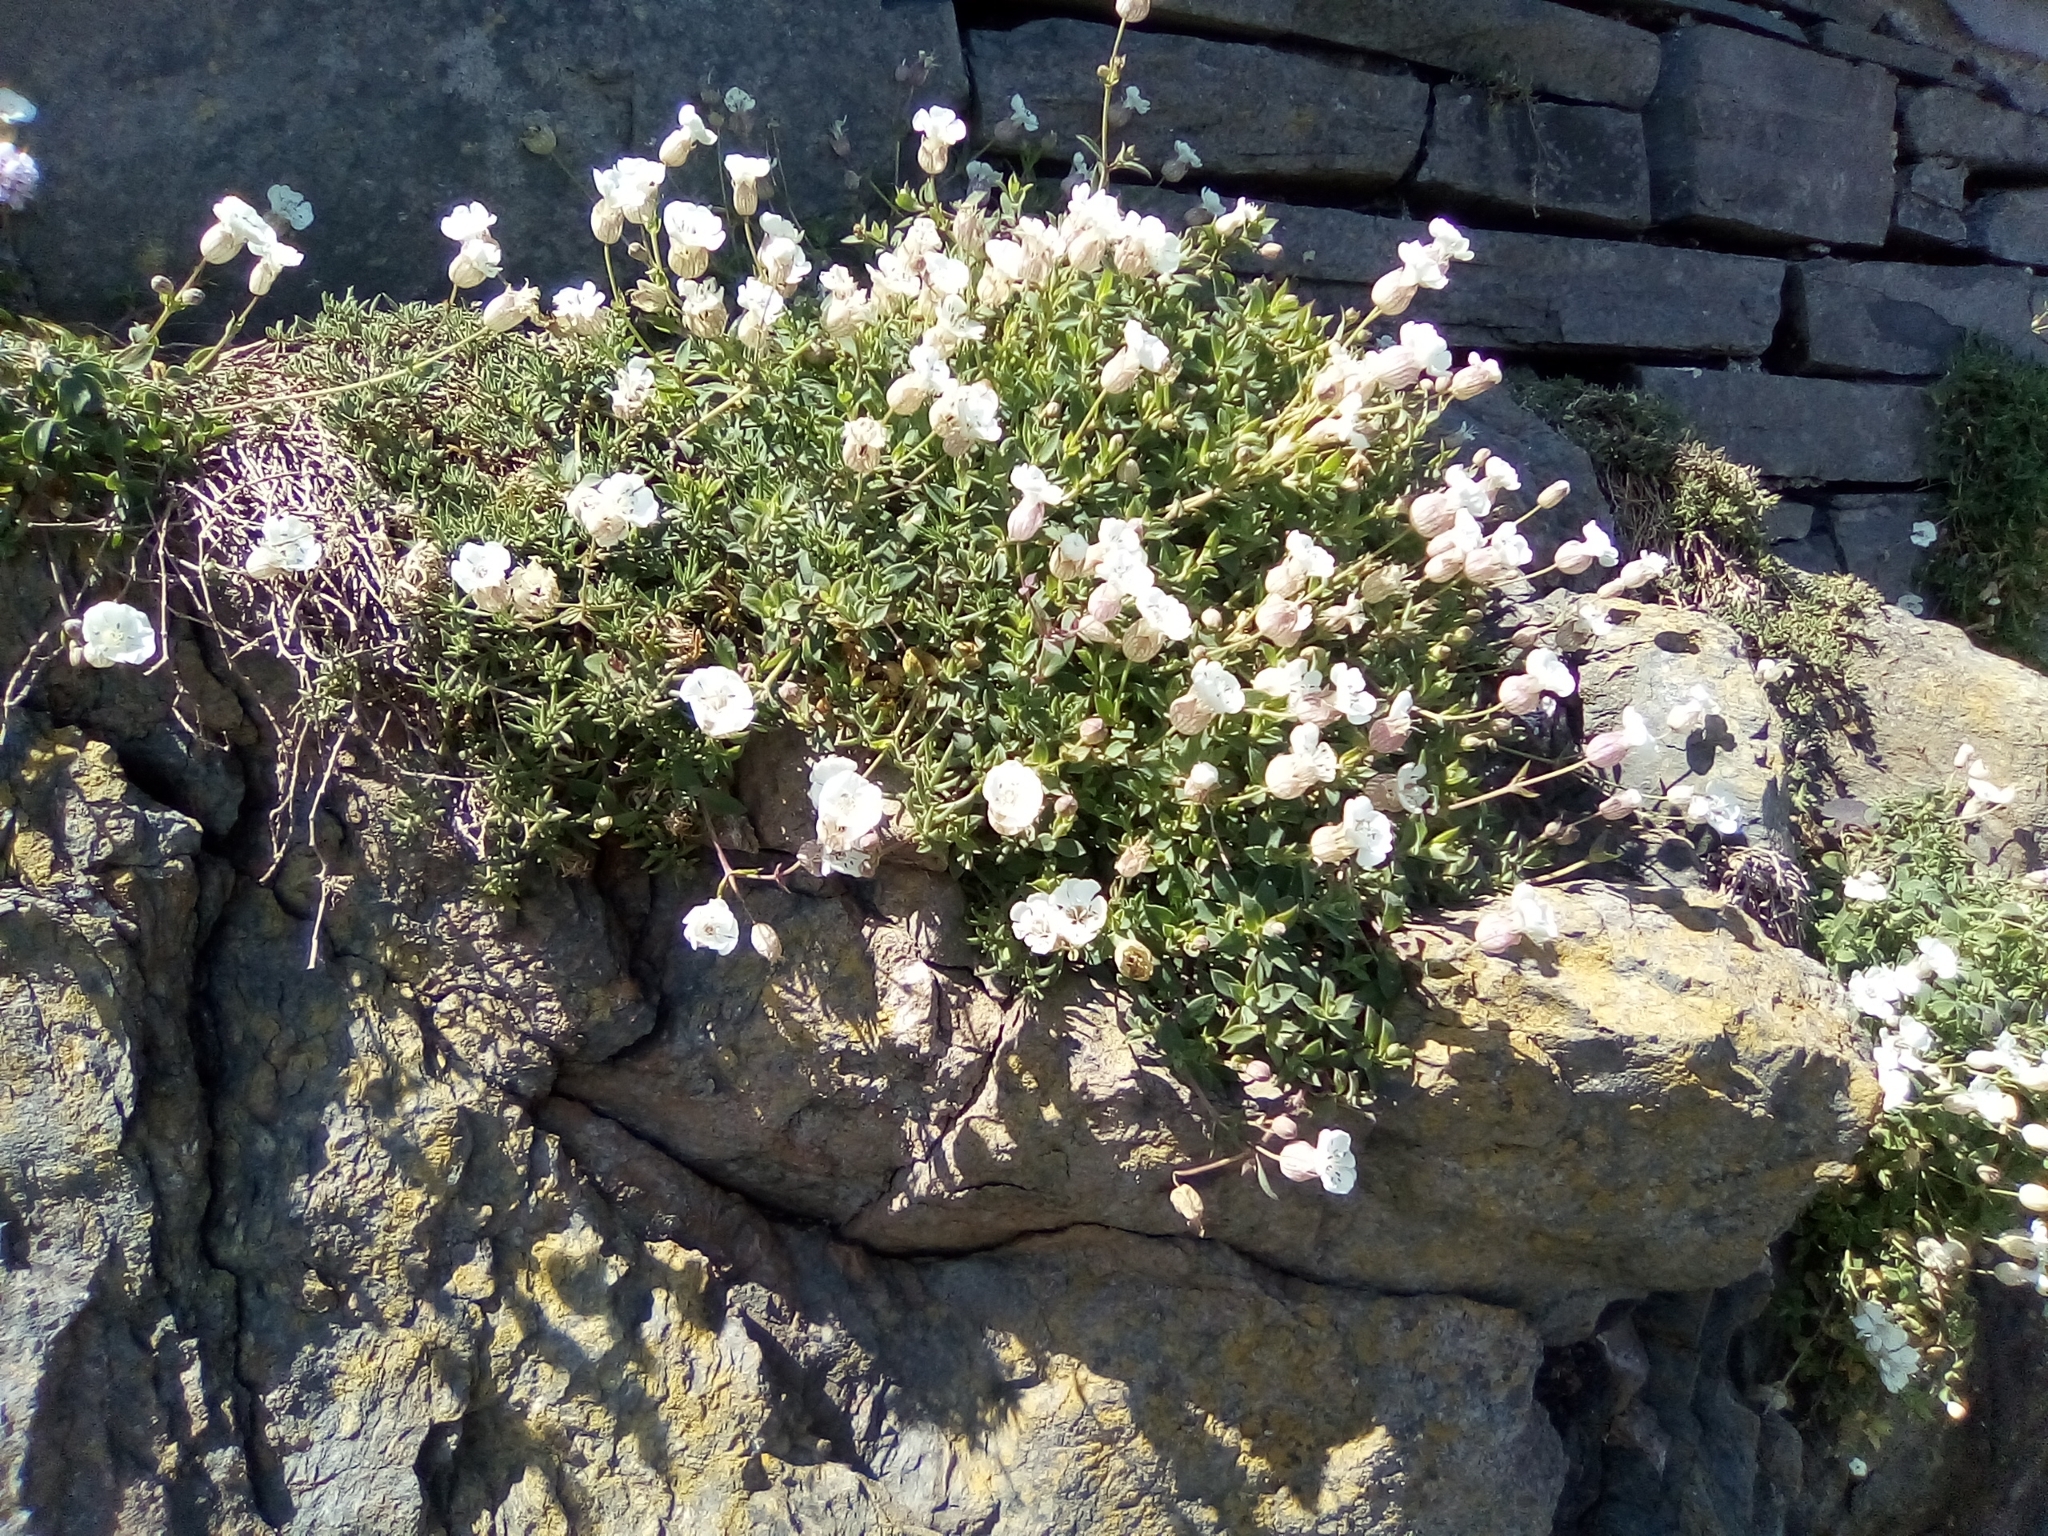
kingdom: Plantae
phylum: Tracheophyta
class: Magnoliopsida
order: Caryophyllales
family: Caryophyllaceae
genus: Silene
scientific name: Silene uniflora
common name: Sea campion
